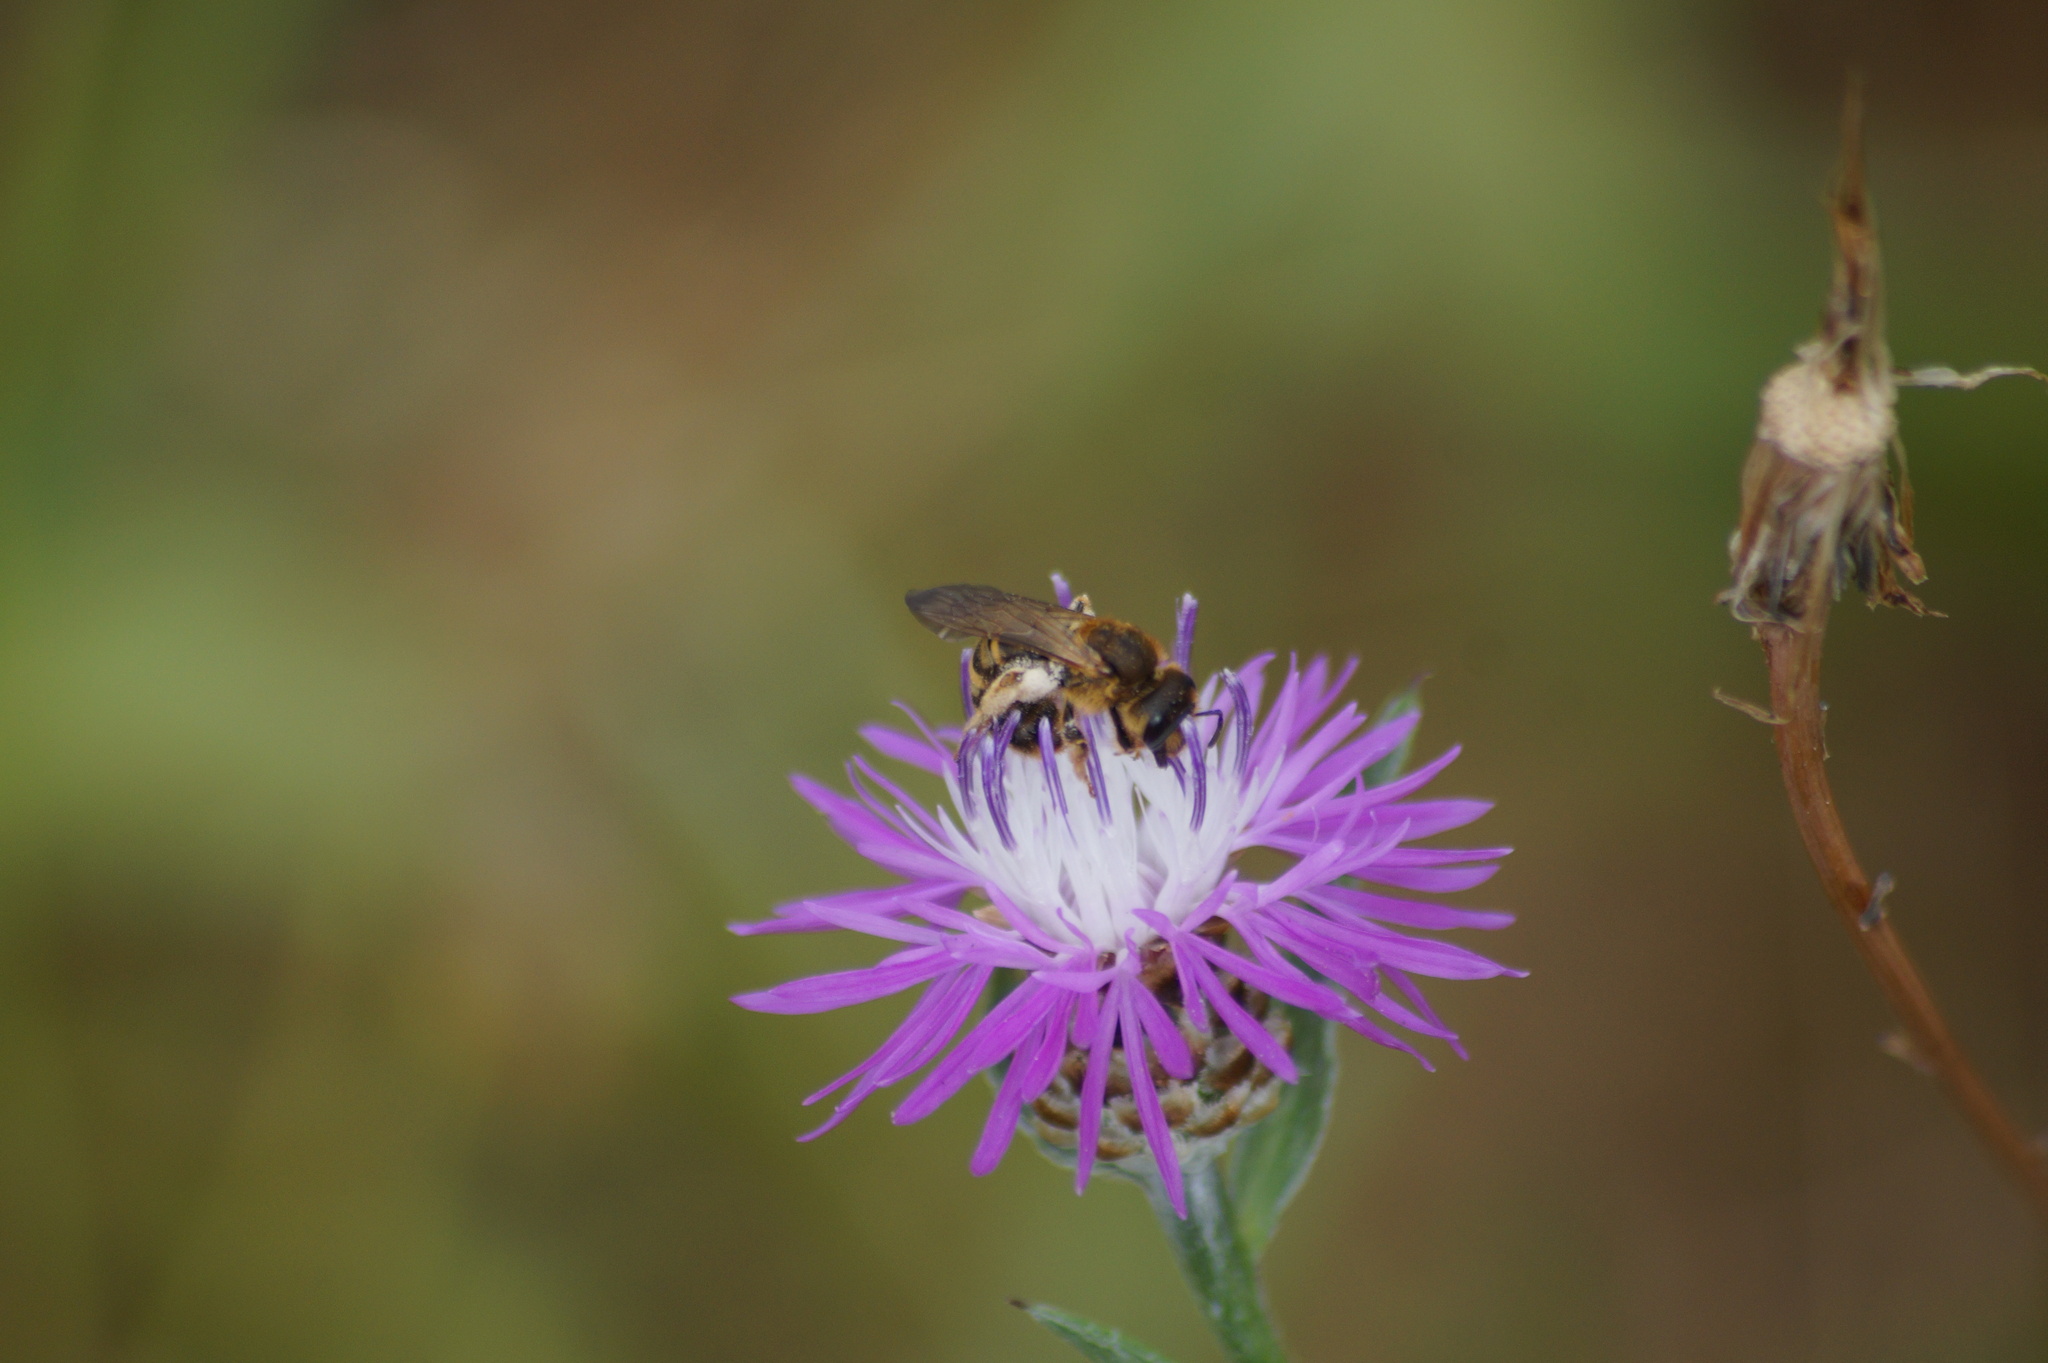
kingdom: Animalia
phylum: Arthropoda
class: Insecta
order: Hymenoptera
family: Halictidae
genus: Halictus
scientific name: Halictus scabiosae
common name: Great banded furrow bee
